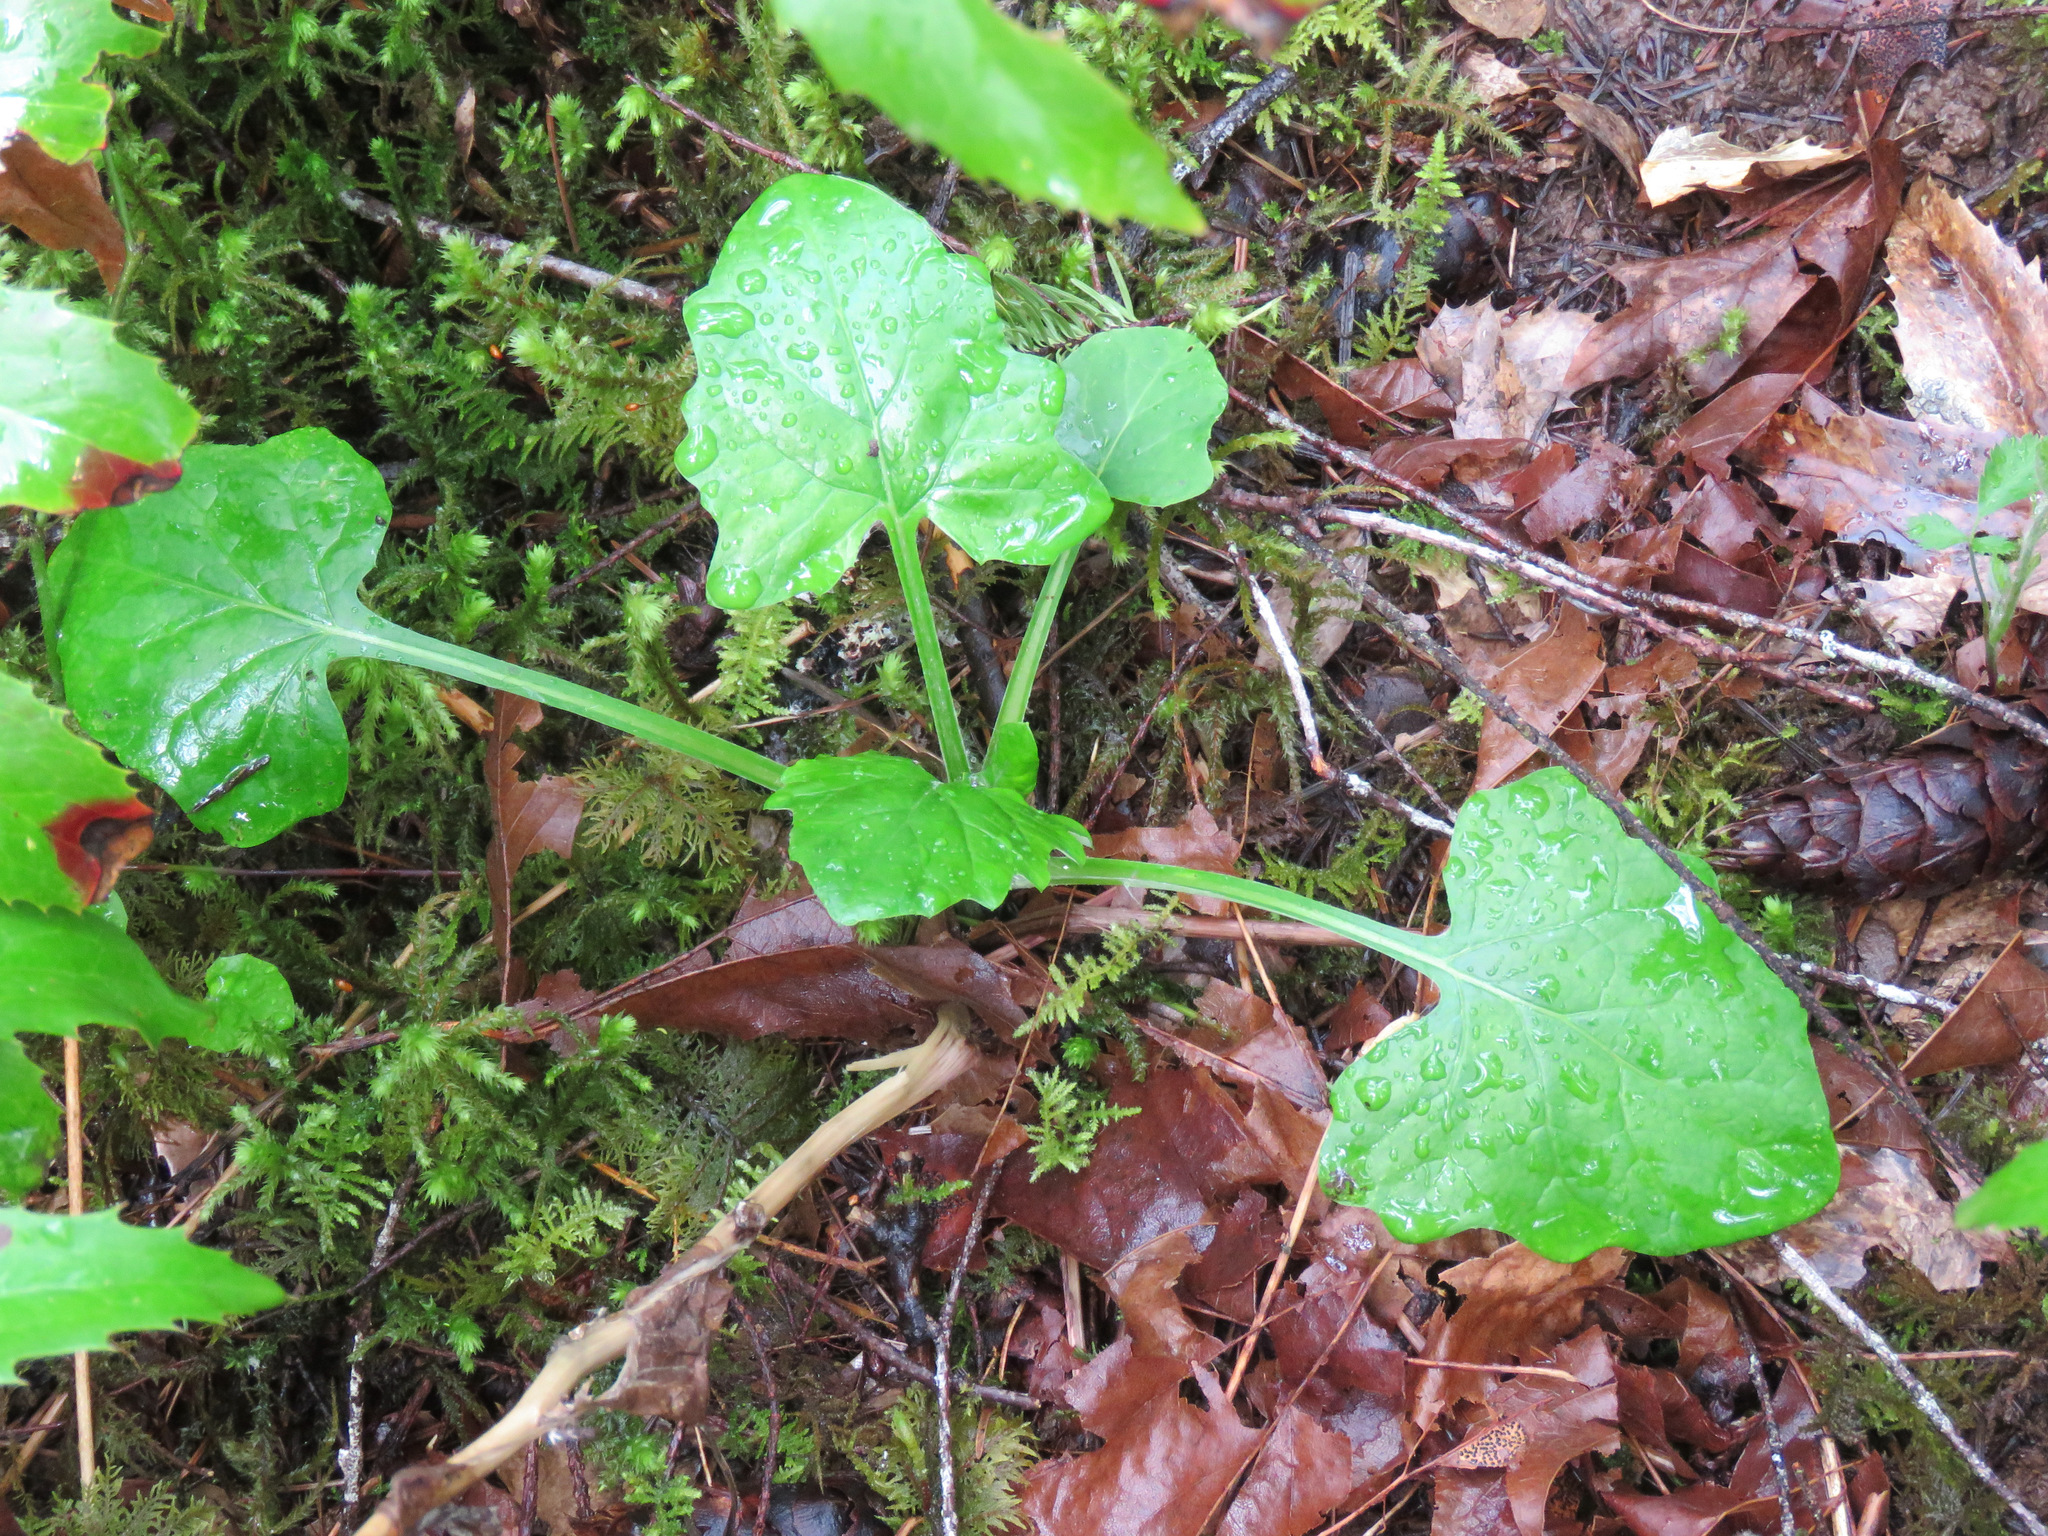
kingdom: Plantae
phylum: Tracheophyta
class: Magnoliopsida
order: Asterales
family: Asteraceae
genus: Adenocaulon
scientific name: Adenocaulon bicolor
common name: Trailplant
